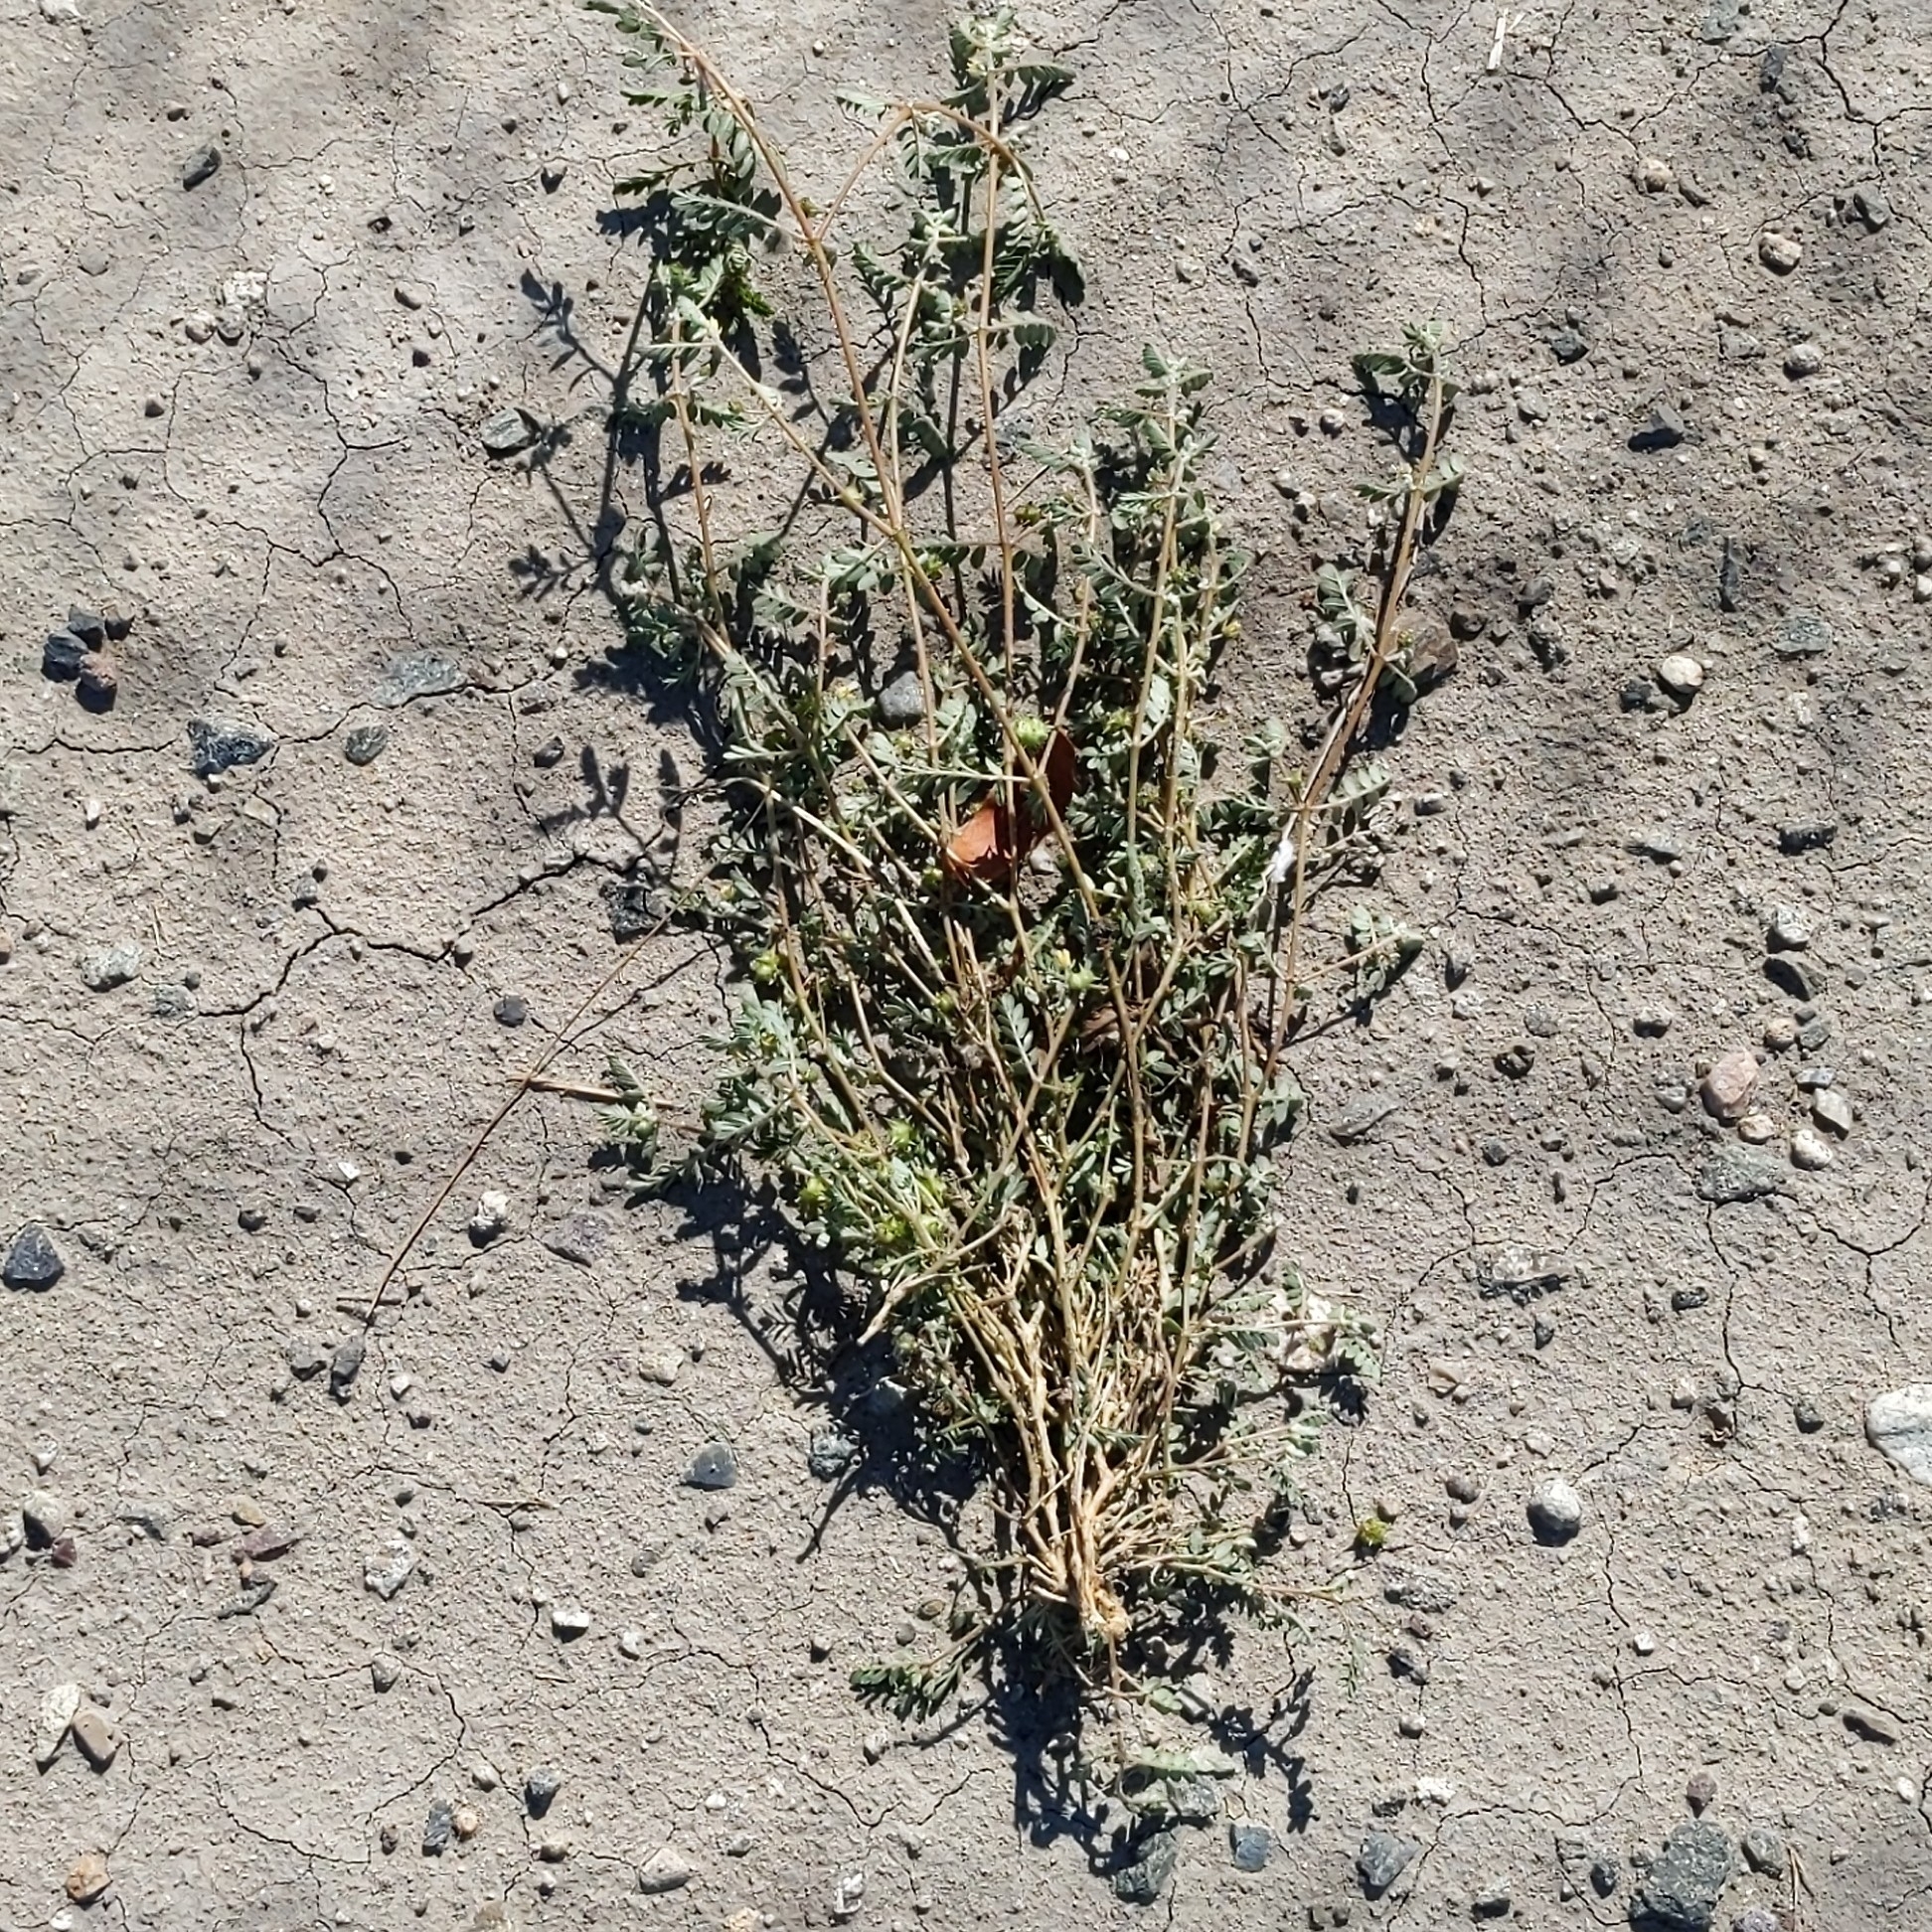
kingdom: Plantae
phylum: Tracheophyta
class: Magnoliopsida
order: Zygophyllales
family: Zygophyllaceae
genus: Tribulus
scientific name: Tribulus terrestris
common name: Puncturevine
